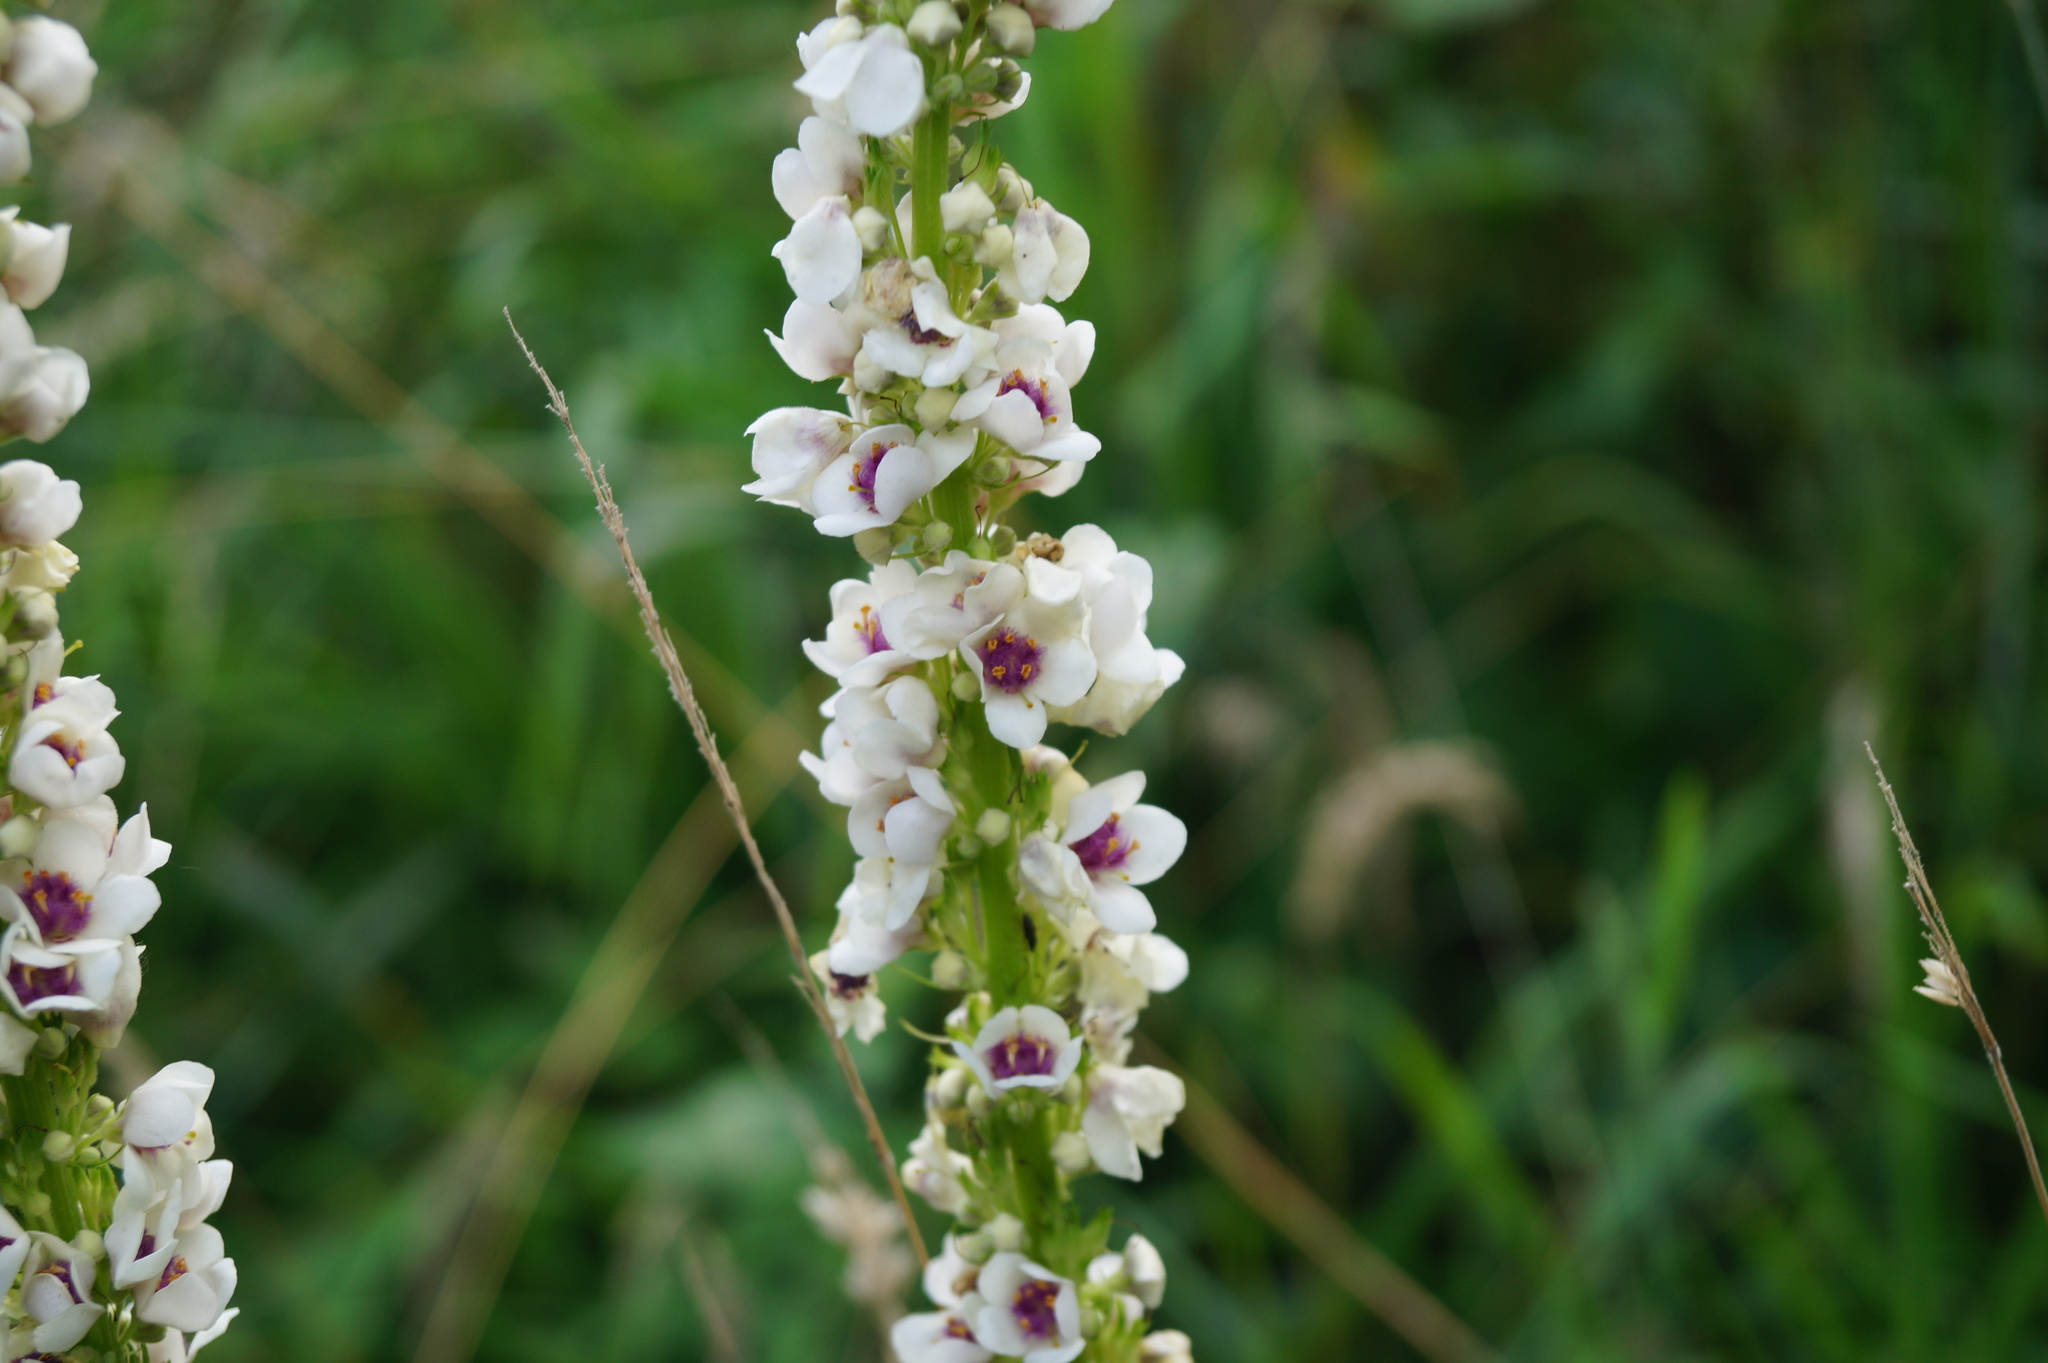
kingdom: Plantae
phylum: Tracheophyta
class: Magnoliopsida
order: Lamiales
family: Scrophulariaceae
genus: Verbascum
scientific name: Verbascum nigrum
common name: Dark mullein
